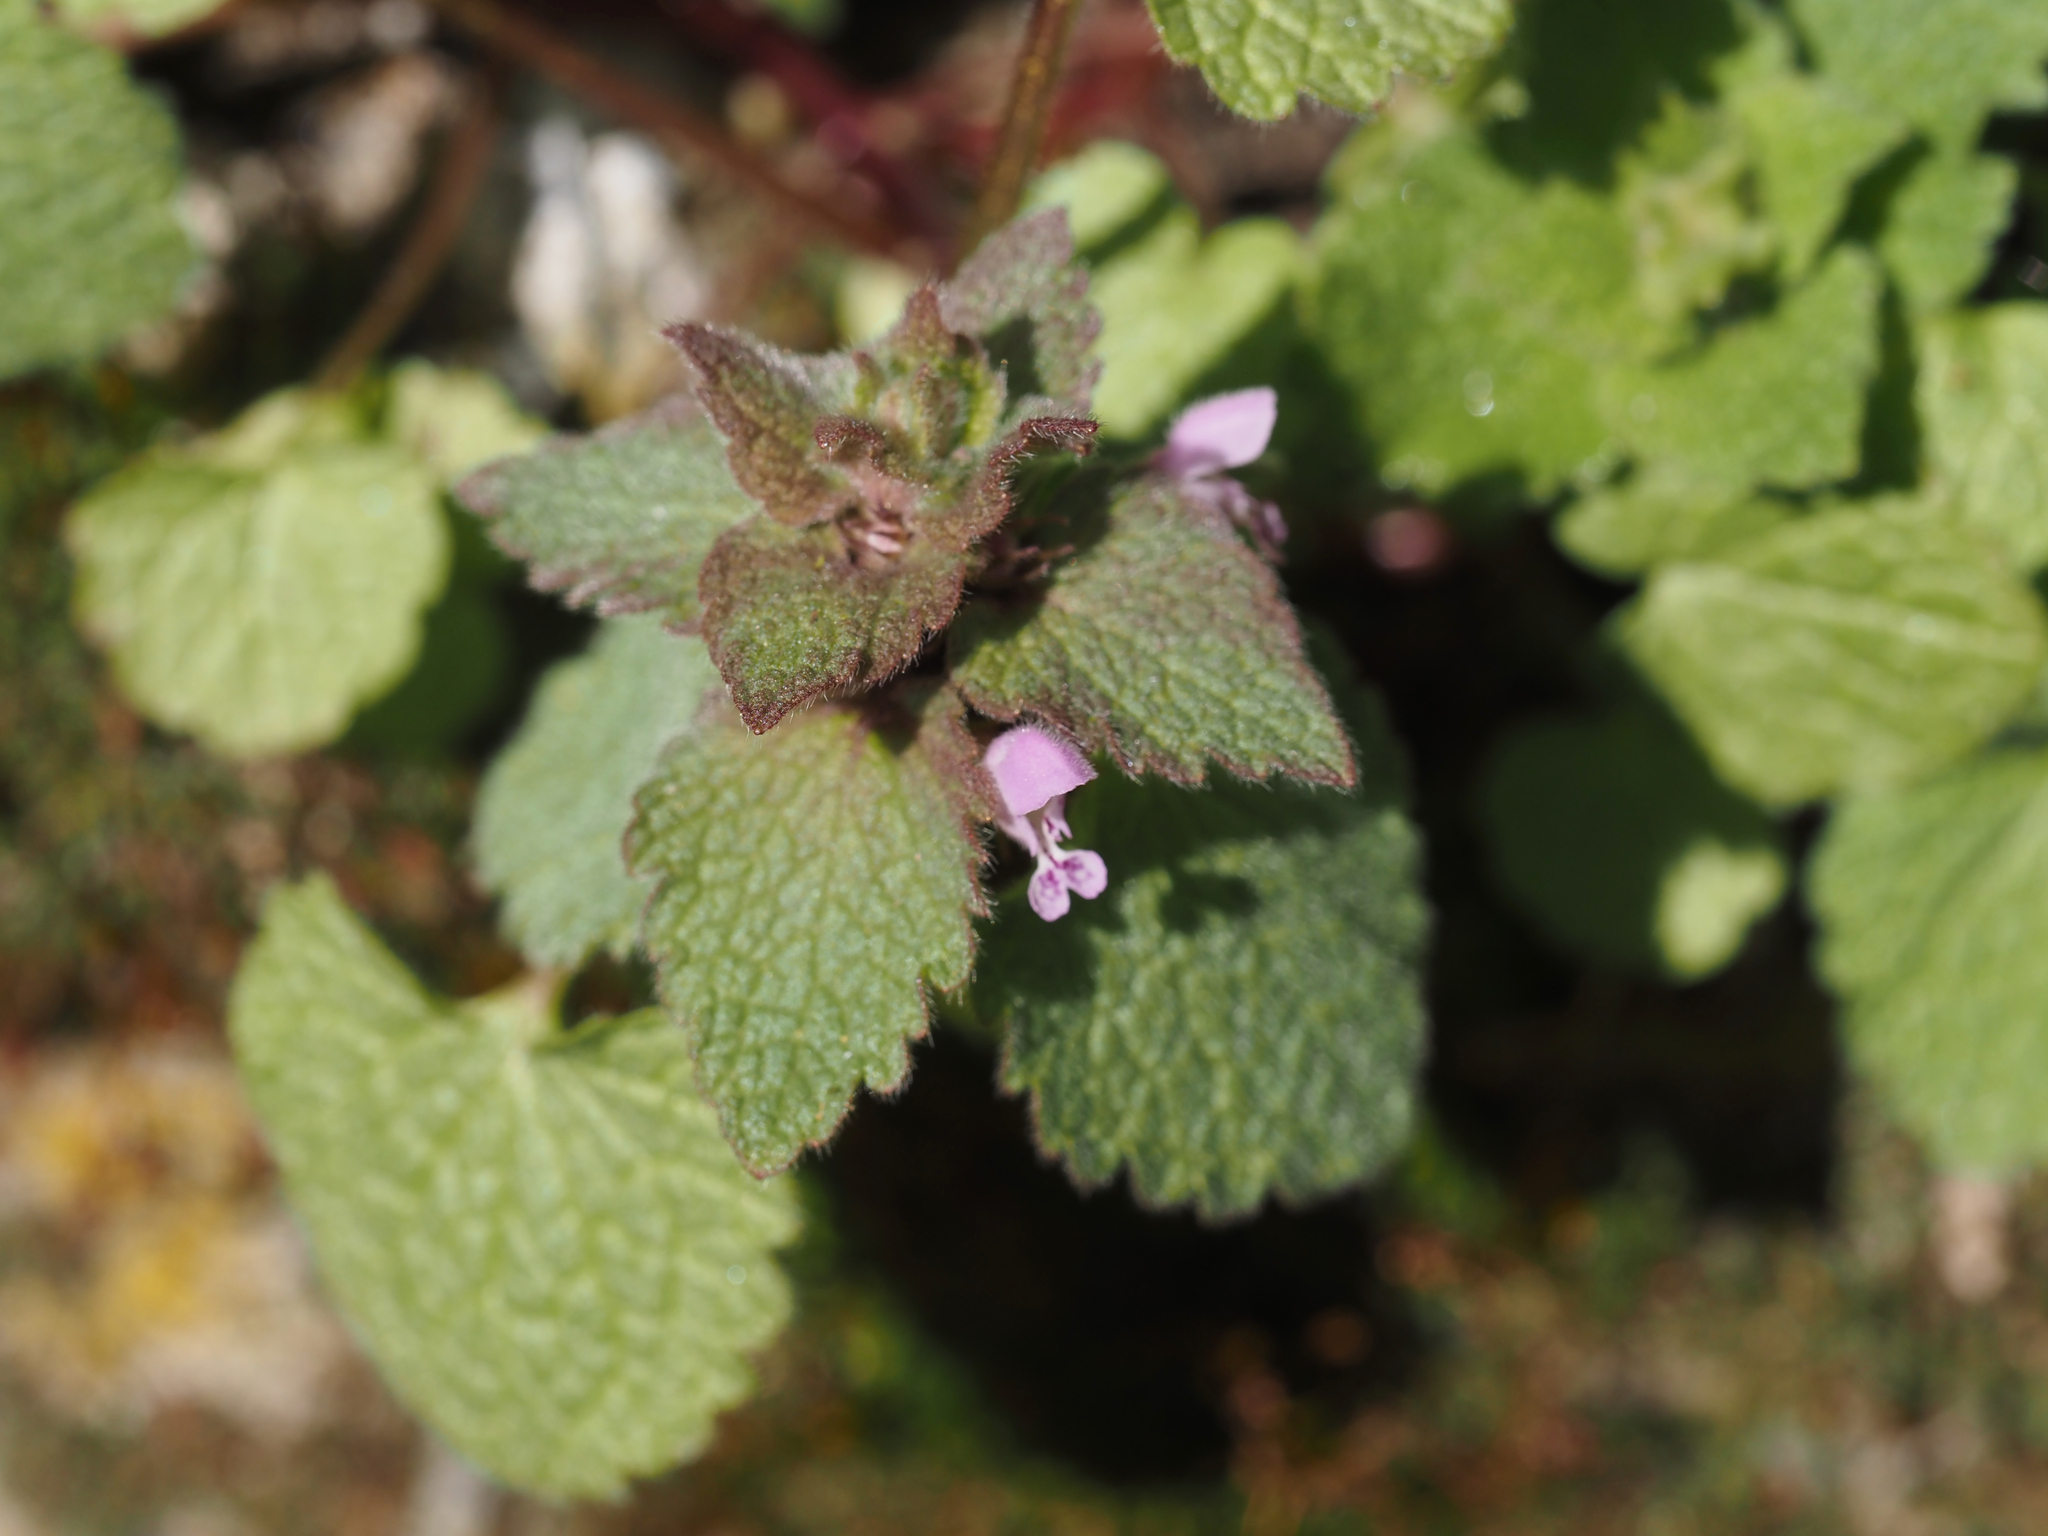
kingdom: Plantae
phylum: Tracheophyta
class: Magnoliopsida
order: Lamiales
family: Lamiaceae
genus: Lamium
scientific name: Lamium purpureum
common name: Red dead-nettle
